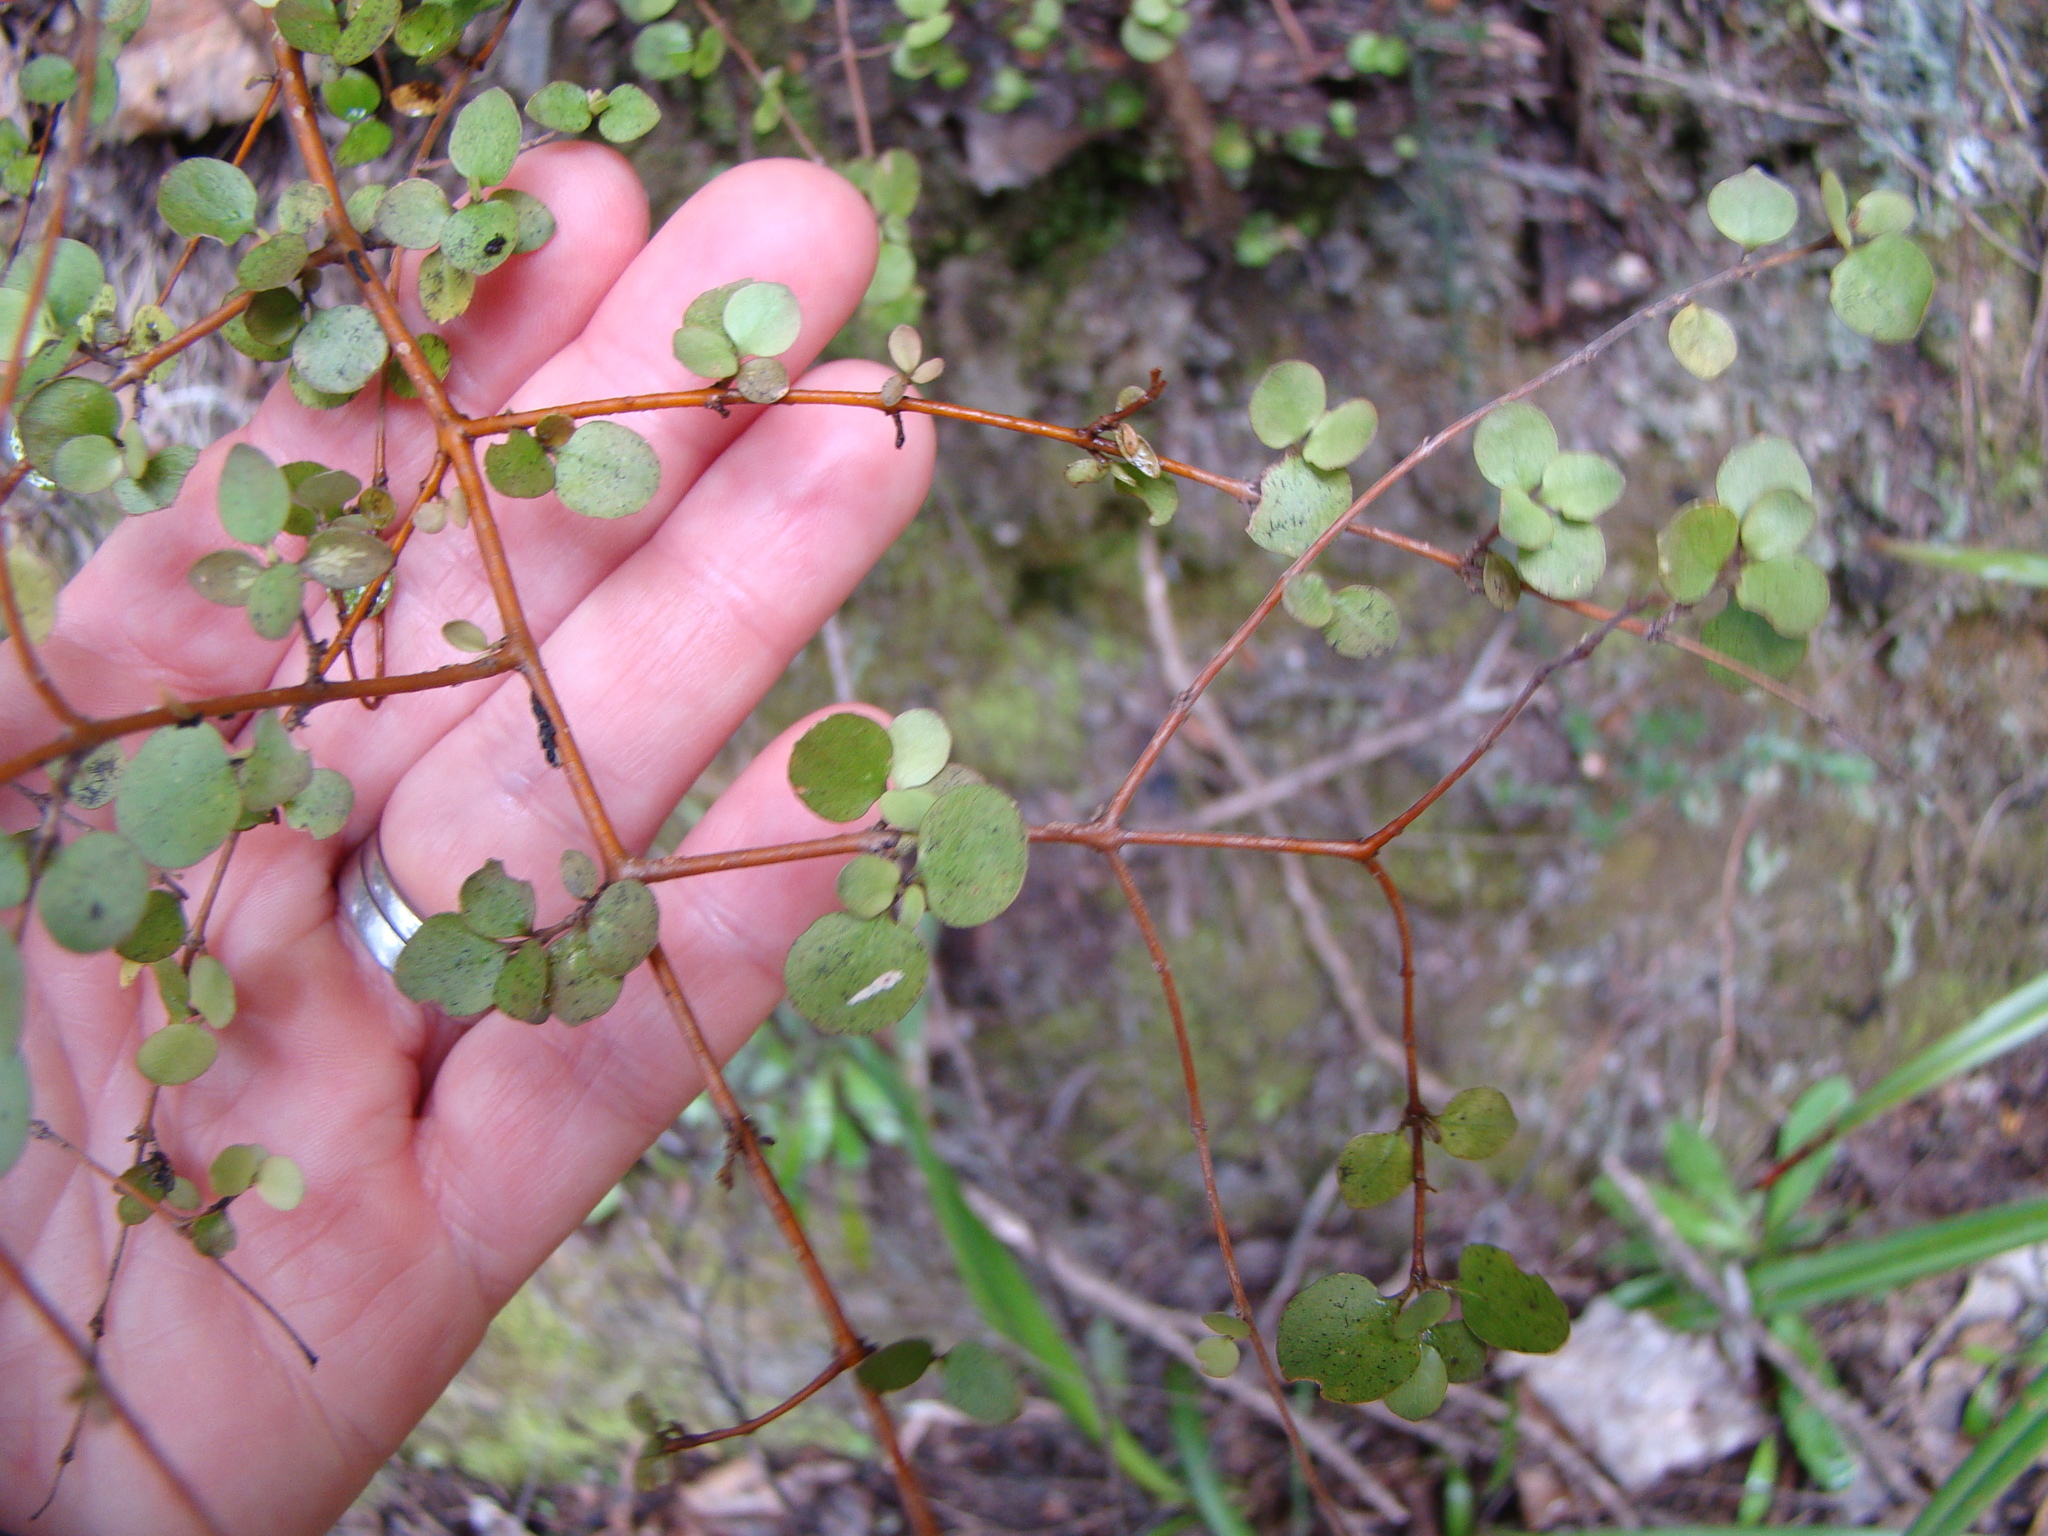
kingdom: Plantae
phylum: Tracheophyta
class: Magnoliopsida
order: Gentianales
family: Rubiaceae
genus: Coprosma
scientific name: Coprosma crassifolia
